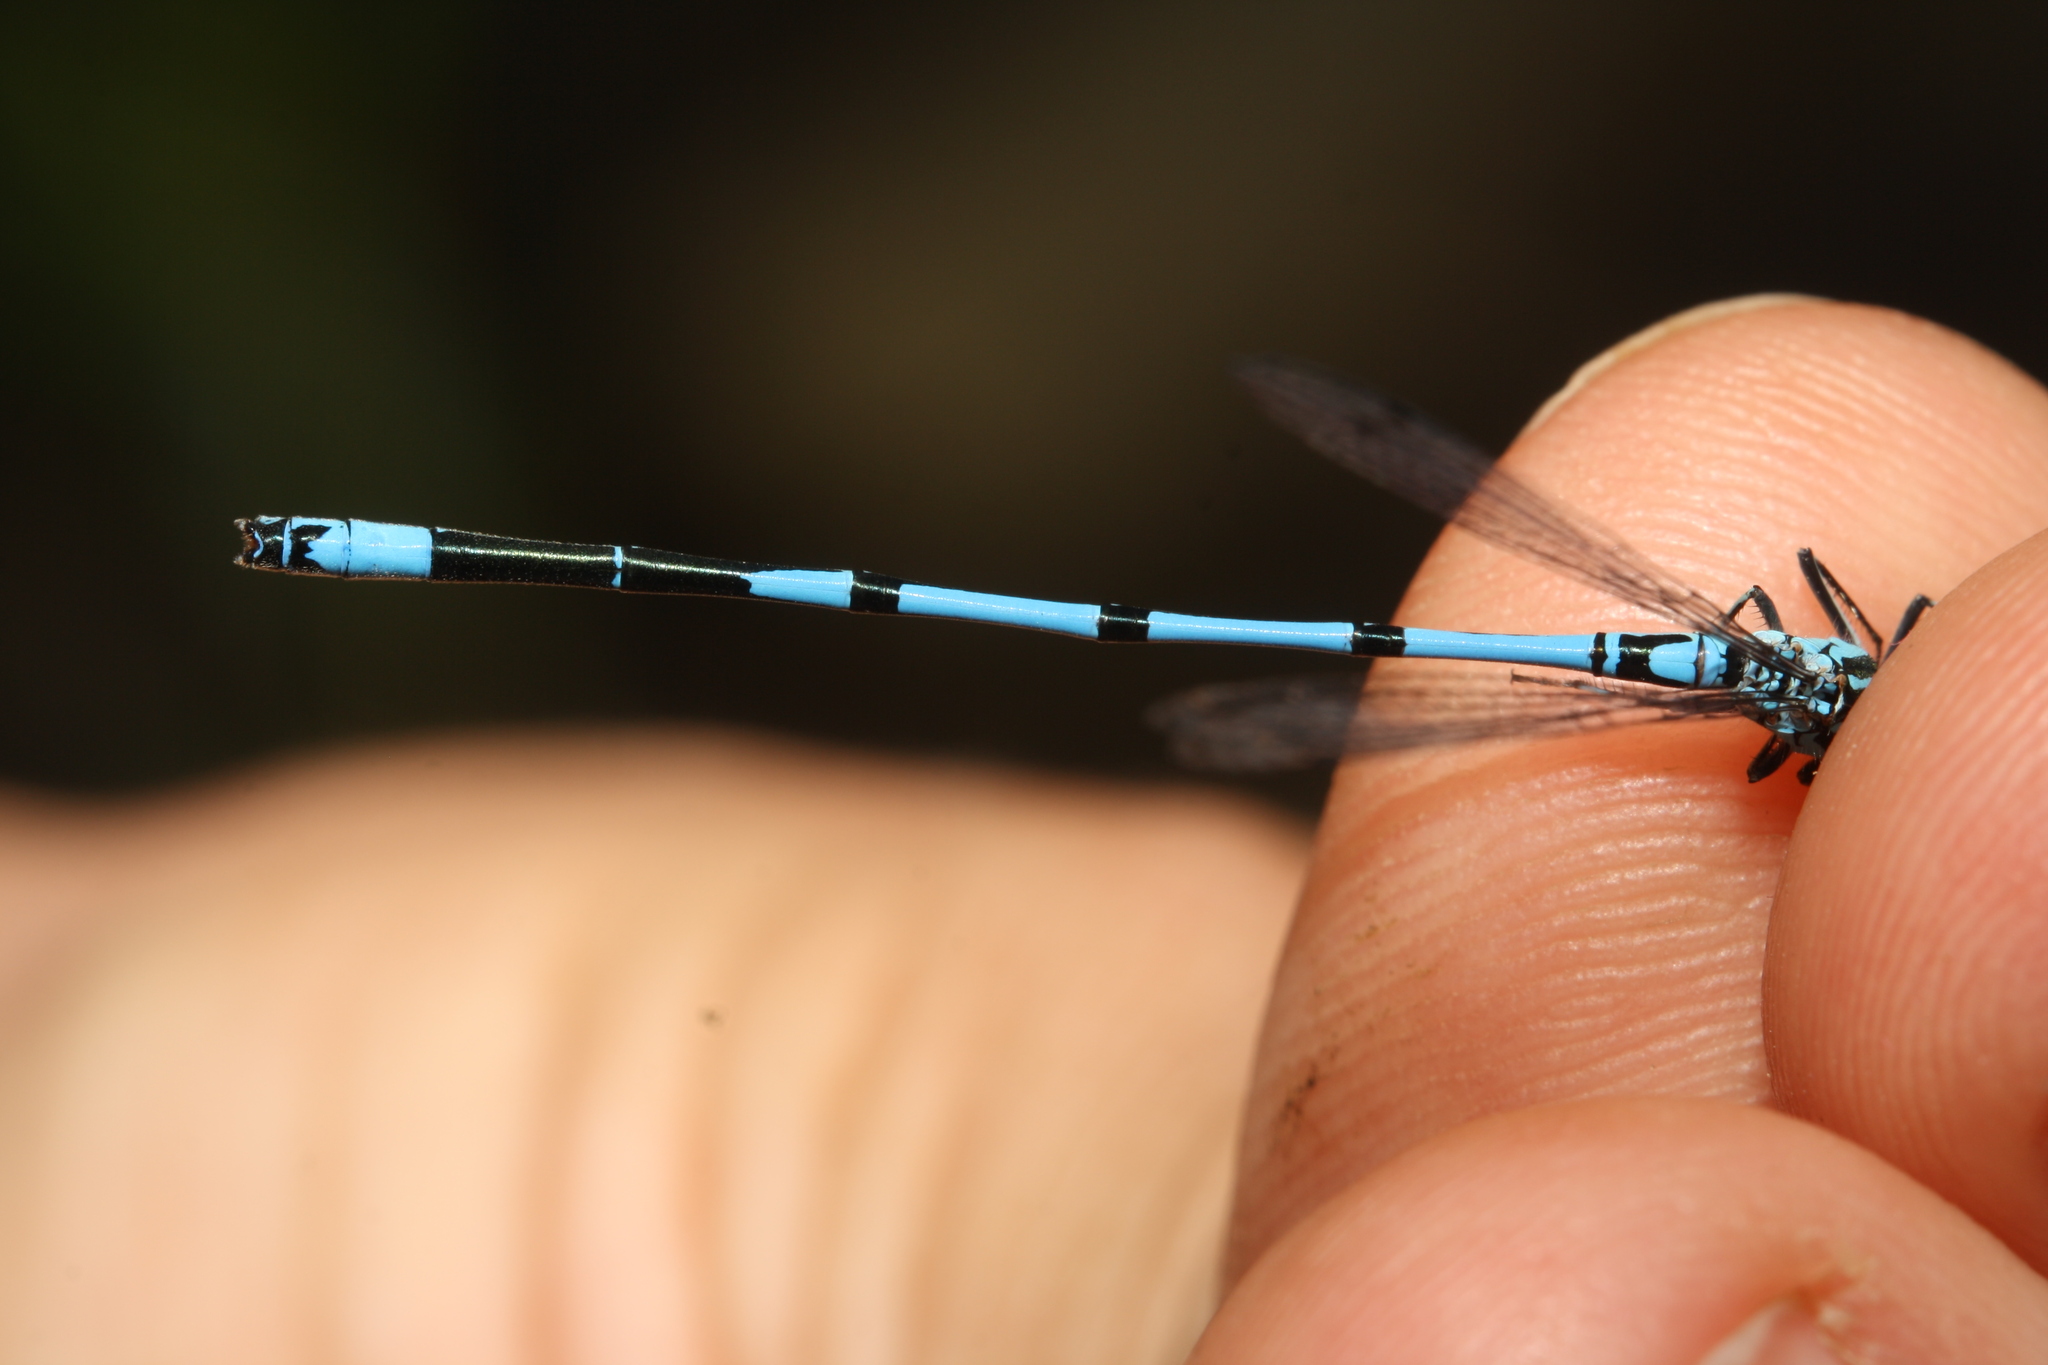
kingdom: Animalia
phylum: Arthropoda
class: Insecta
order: Odonata
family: Coenagrionidae
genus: Coenagrion
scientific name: Coenagrion puella
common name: Azure damselfly
